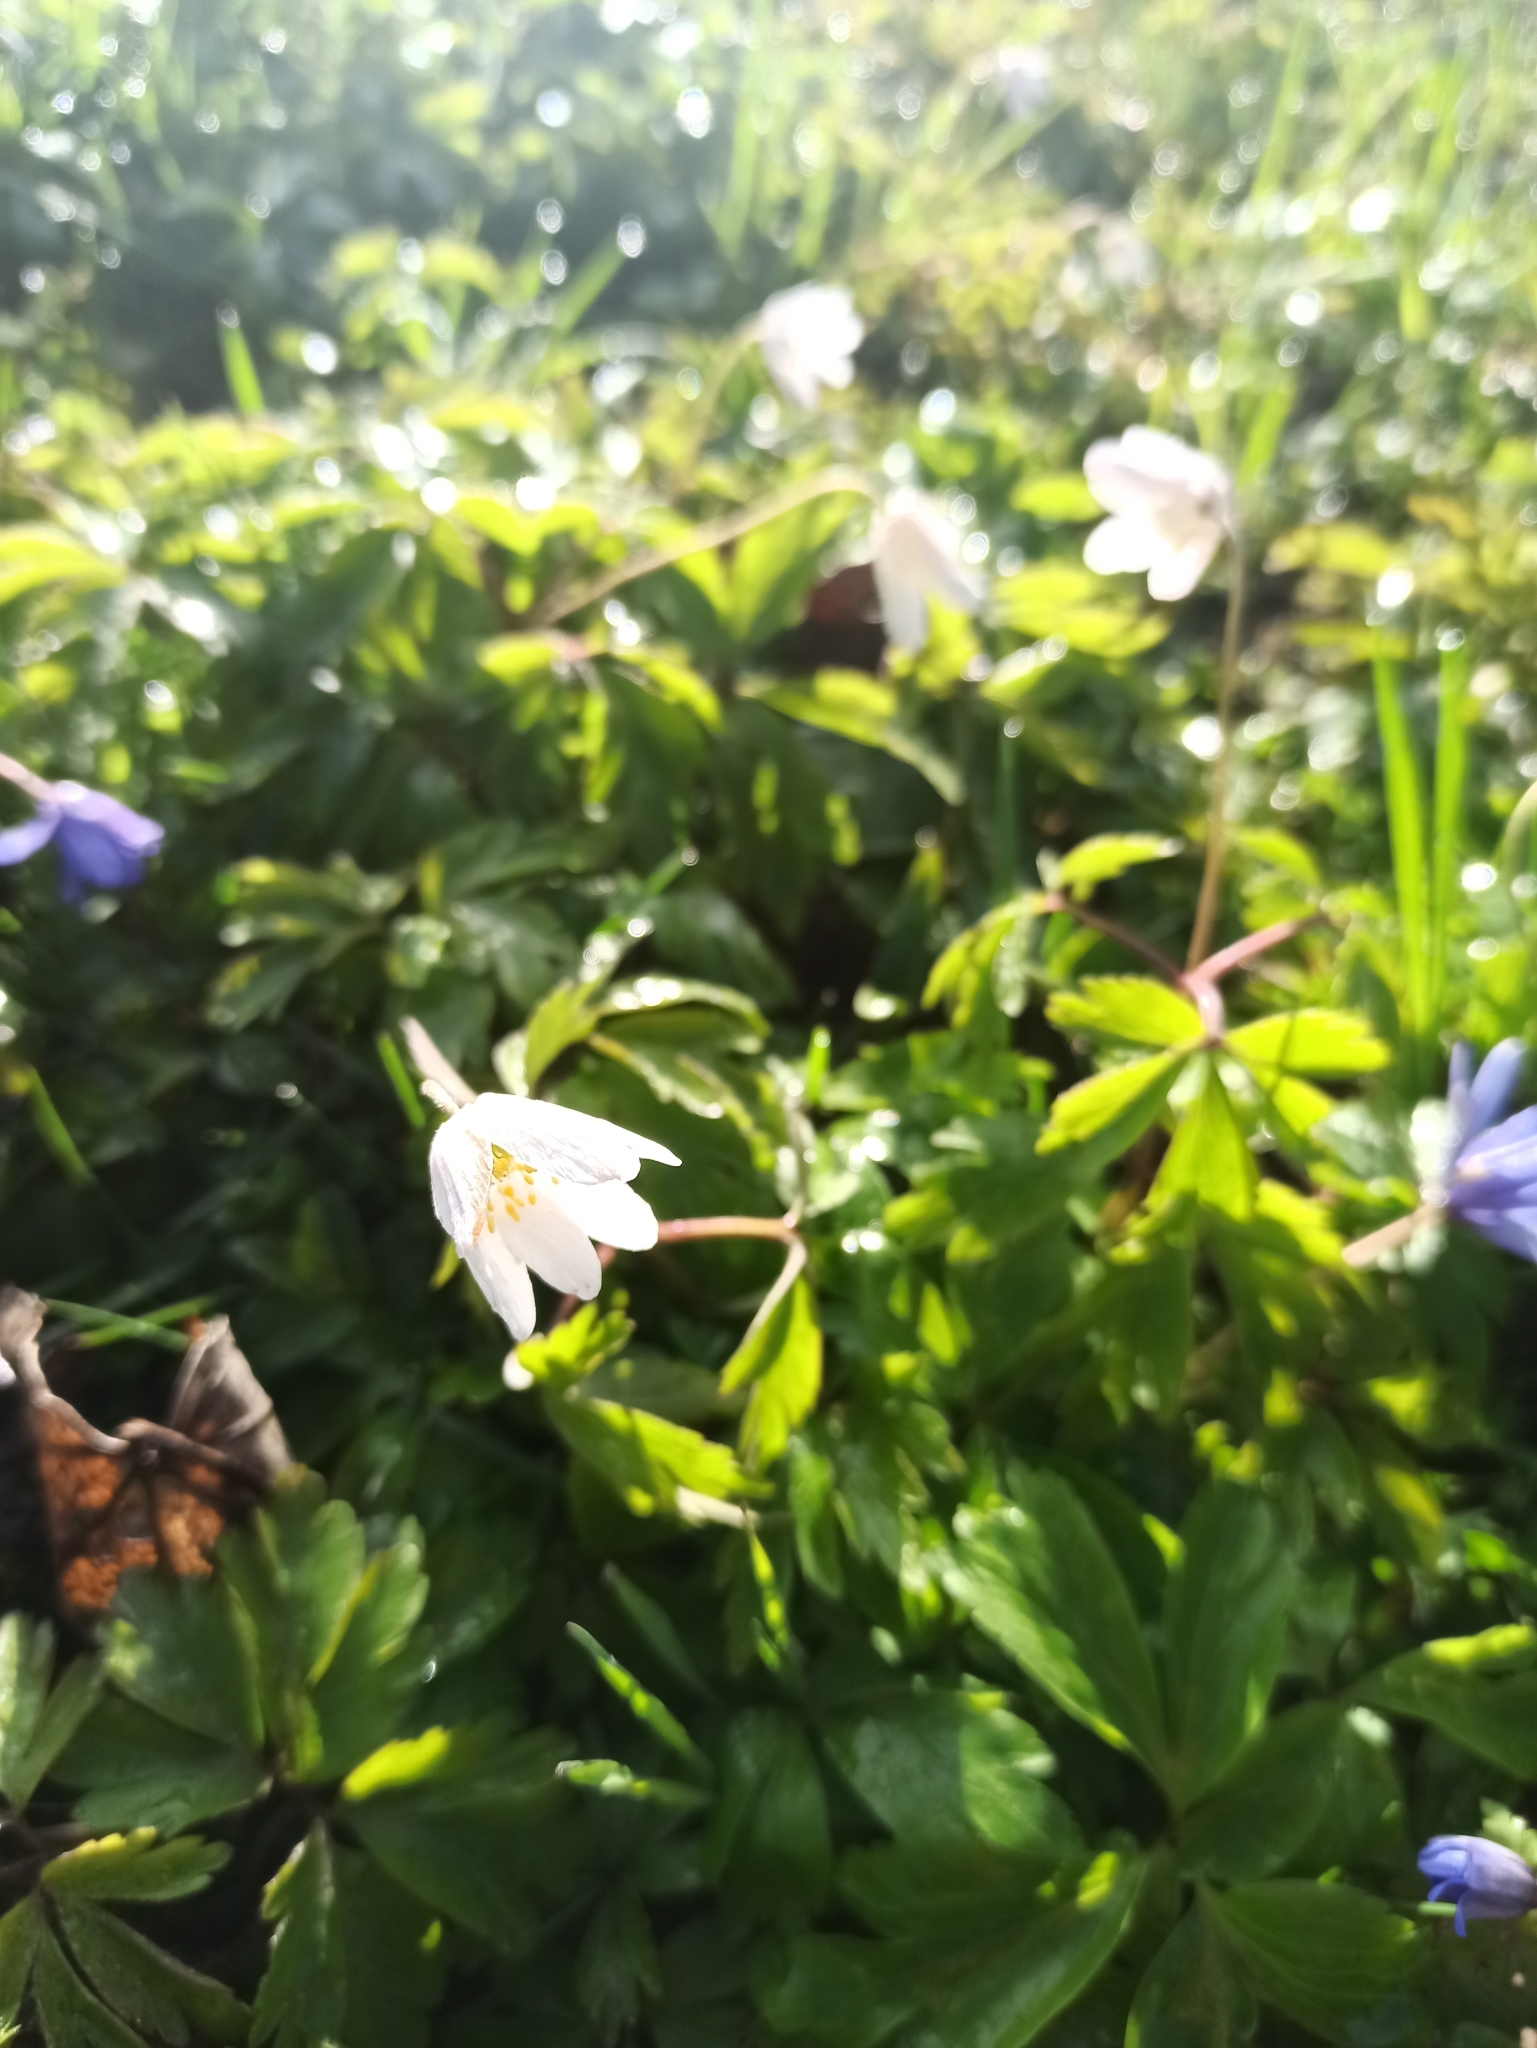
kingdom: Plantae
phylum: Tracheophyta
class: Magnoliopsida
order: Ranunculales
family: Ranunculaceae
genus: Anemone
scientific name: Anemone nemorosa
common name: Wood anemone
